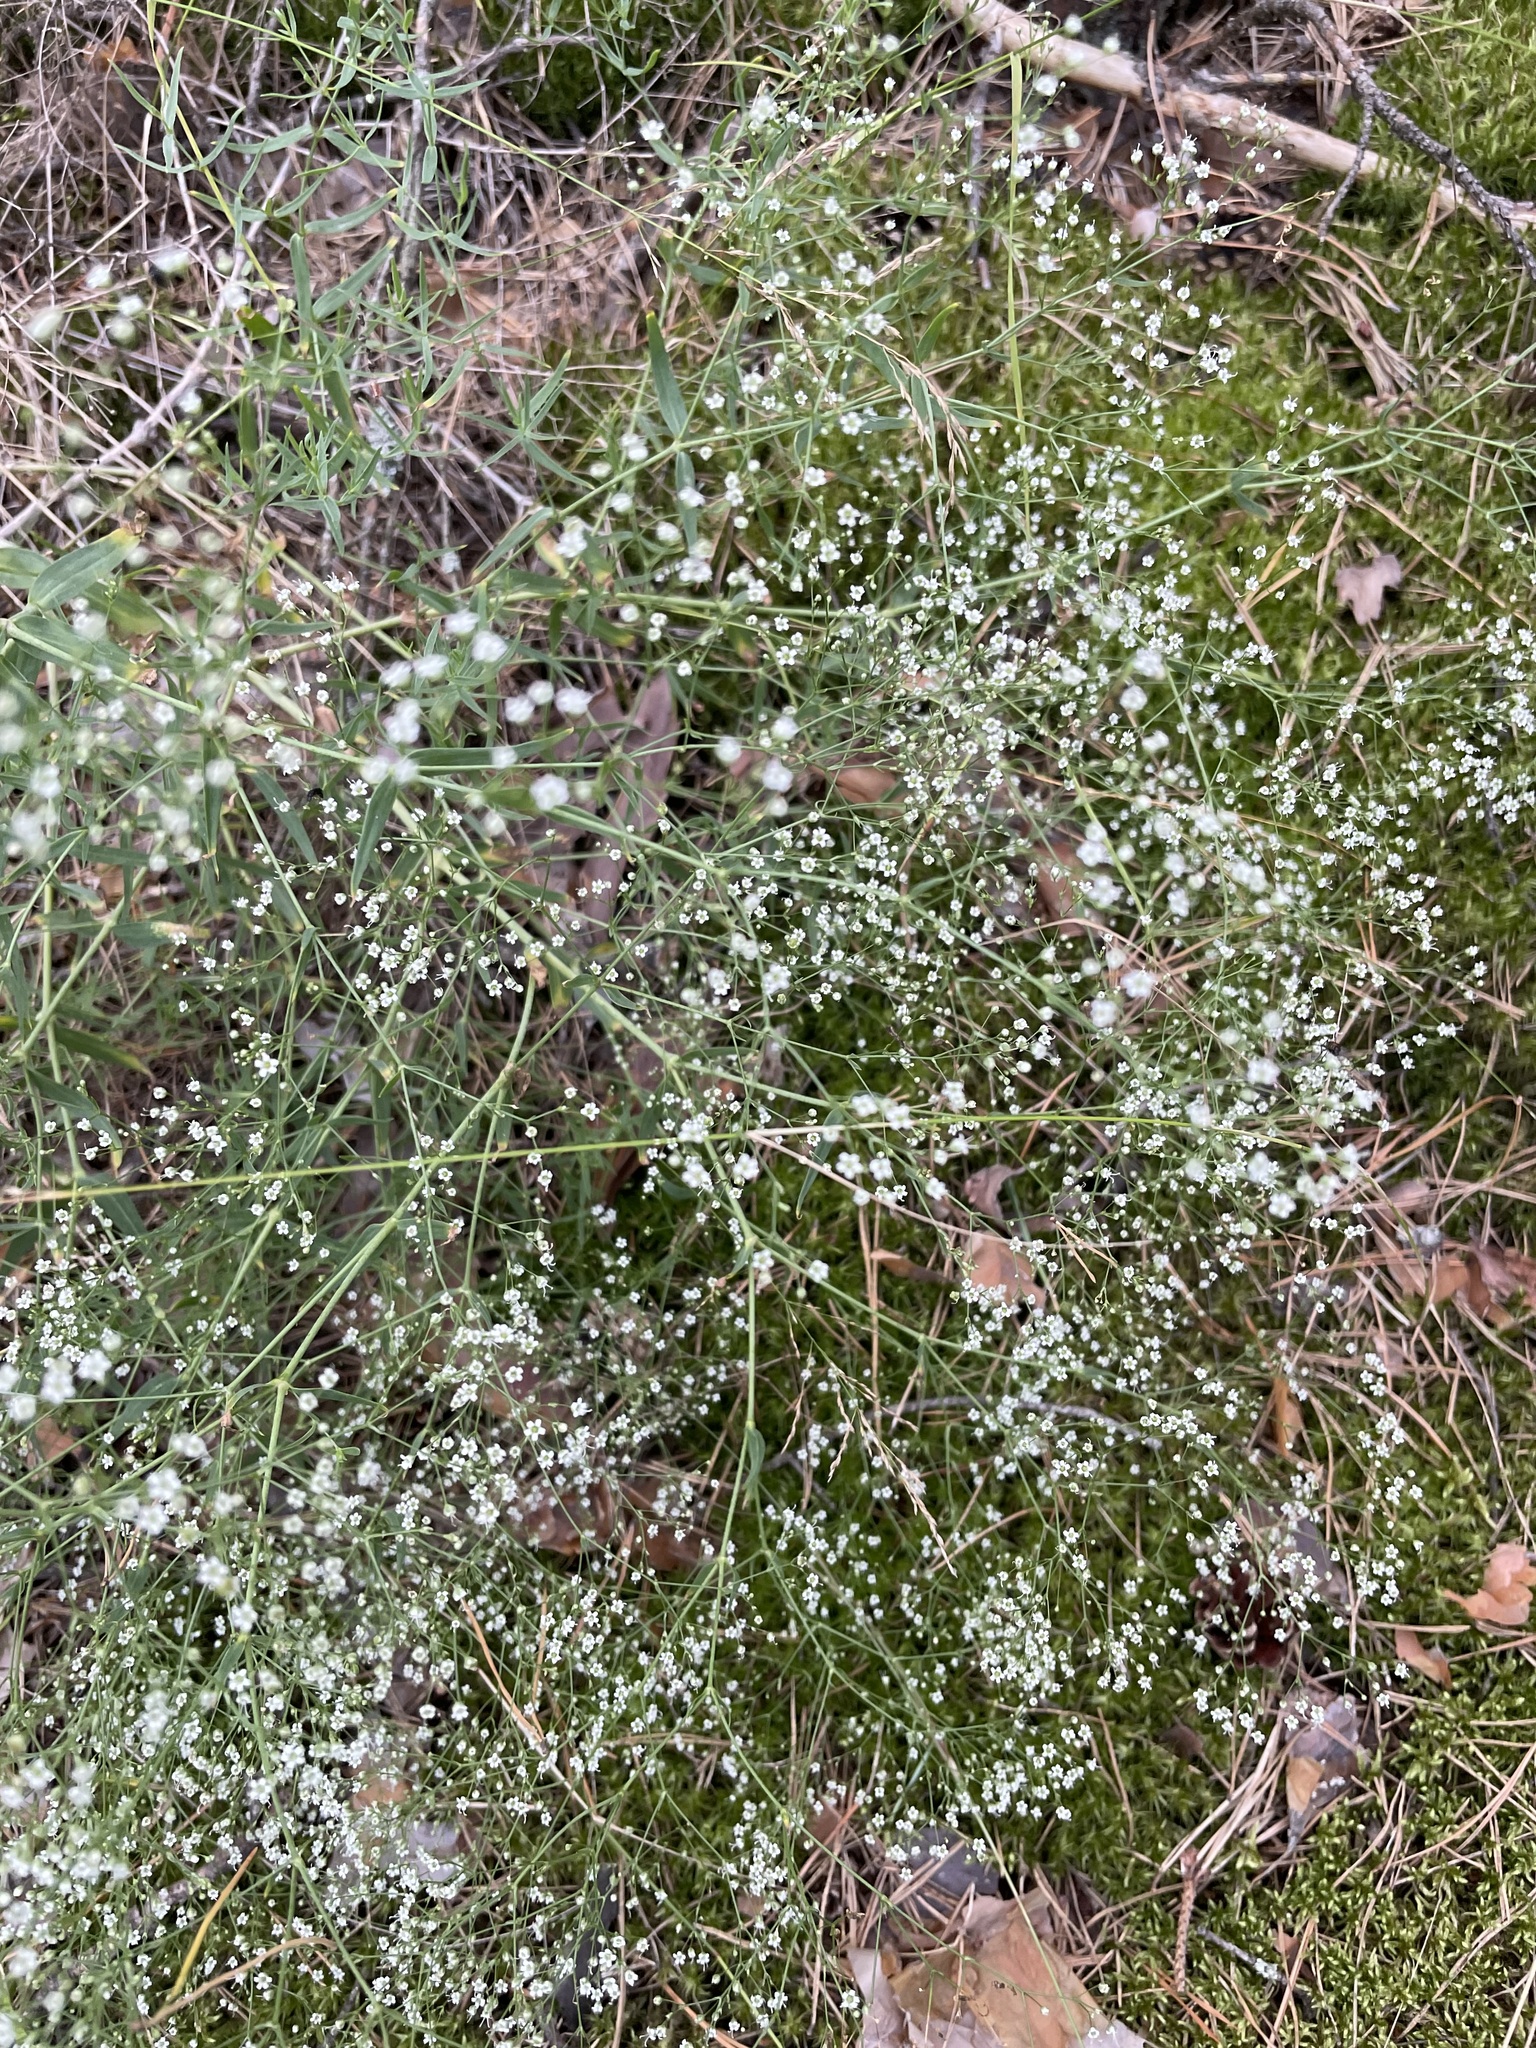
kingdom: Plantae
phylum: Tracheophyta
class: Magnoliopsida
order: Caryophyllales
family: Caryophyllaceae
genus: Gypsophila
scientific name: Gypsophila paniculata
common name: Baby's-breath
